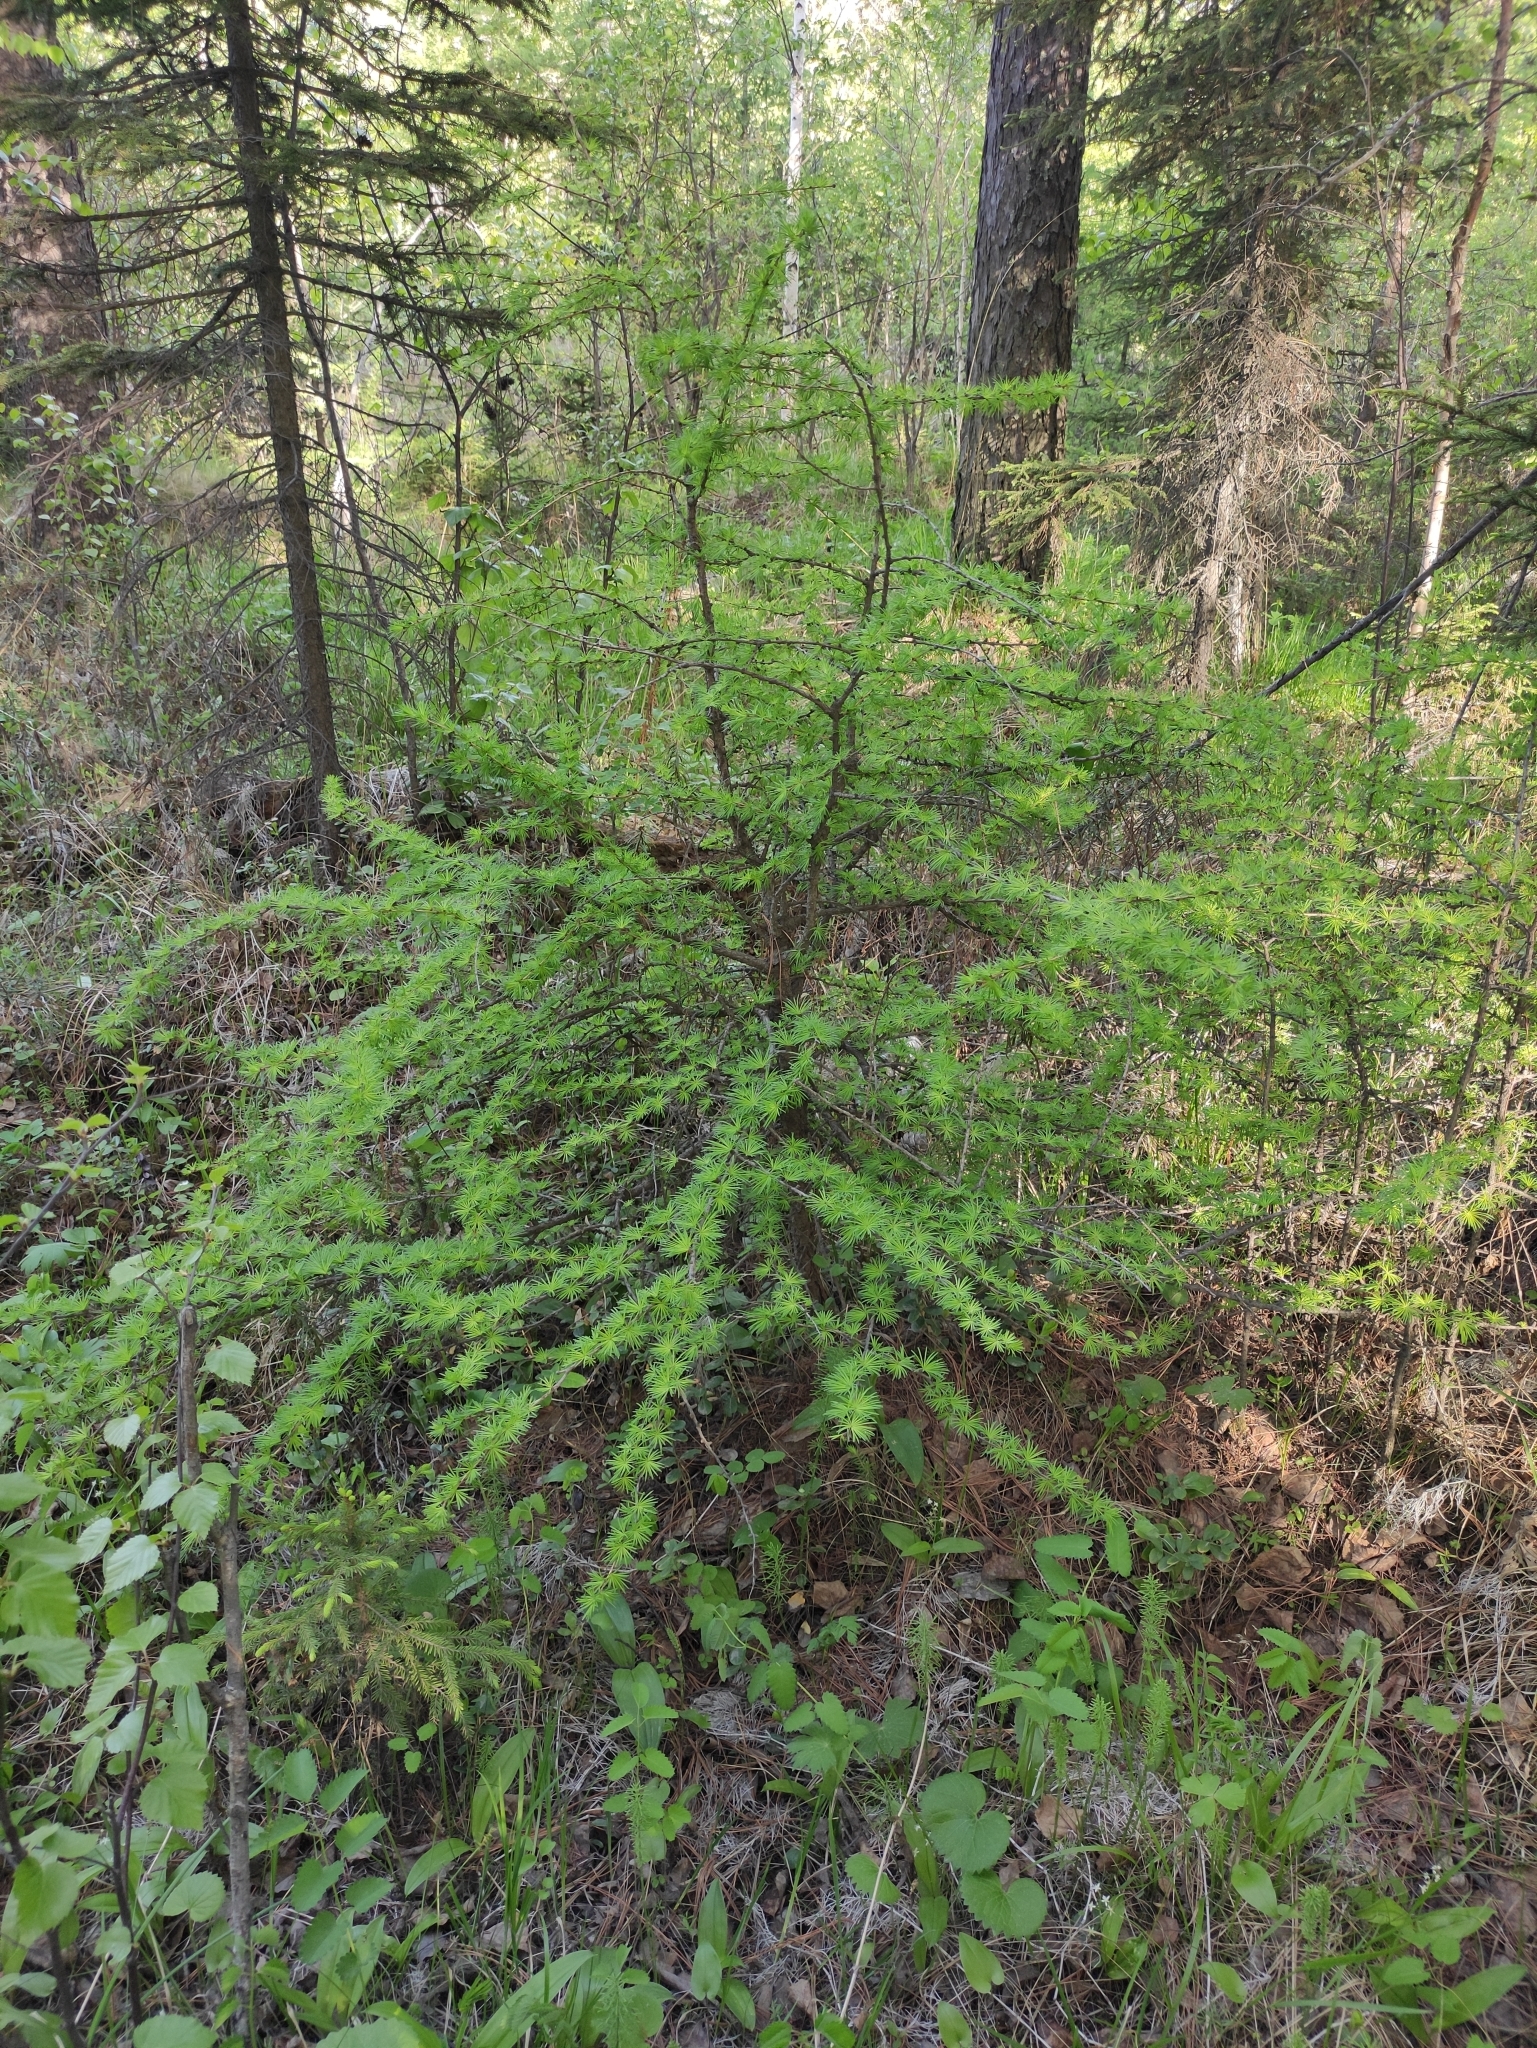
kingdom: Plantae
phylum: Tracheophyta
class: Pinopsida
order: Pinales
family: Pinaceae
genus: Larix
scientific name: Larix sibirica
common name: Siberian larch
